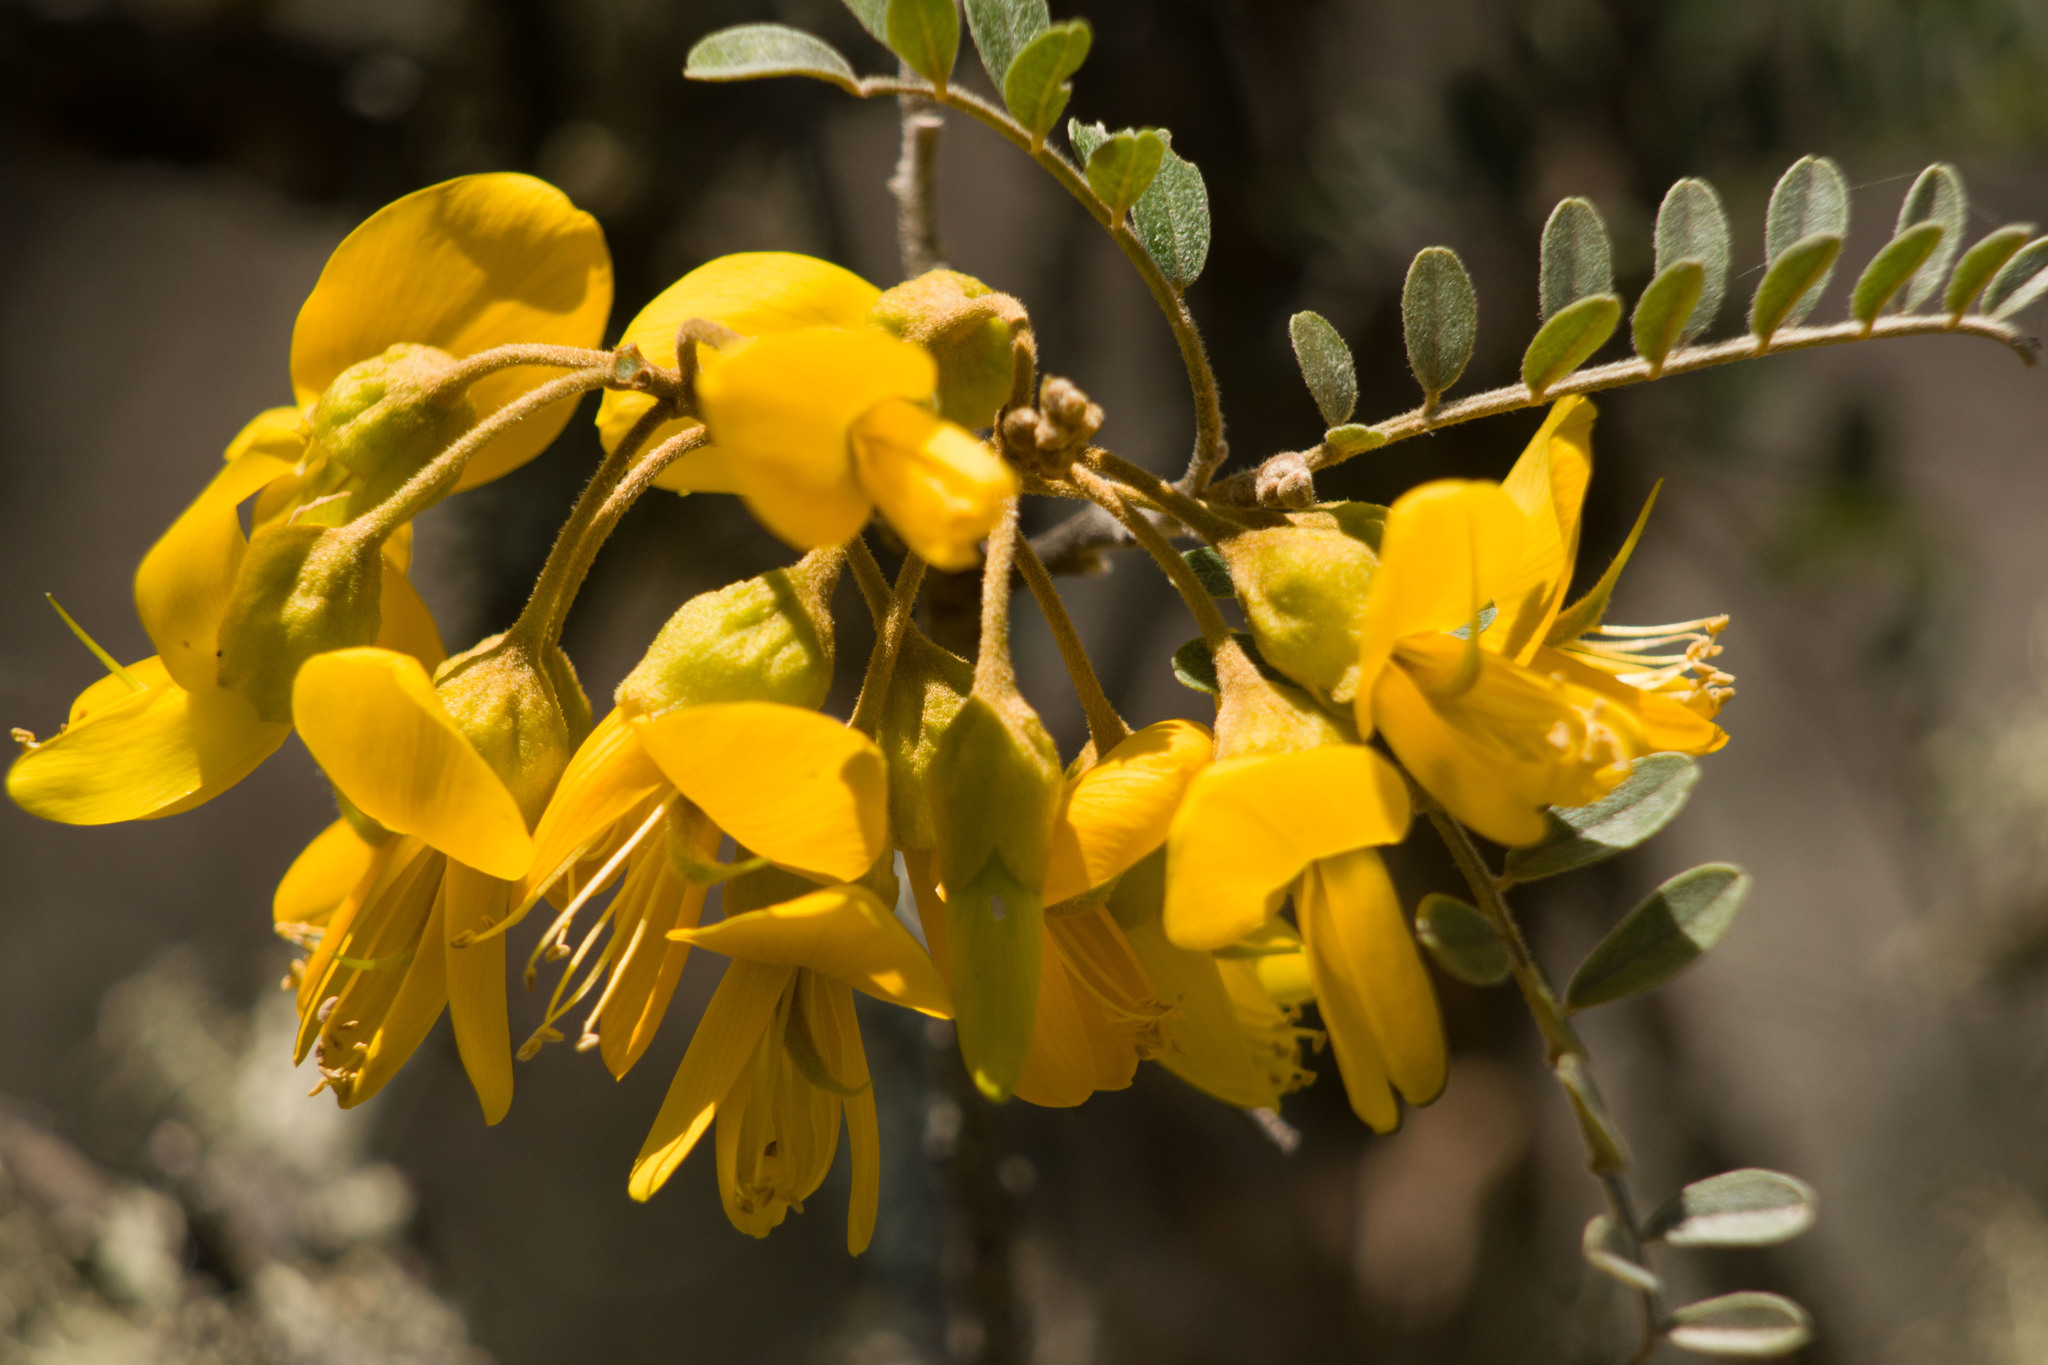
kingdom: Plantae
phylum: Tracheophyta
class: Magnoliopsida
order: Fabales
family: Fabaceae
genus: Sophora
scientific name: Sophora chrysophylla
